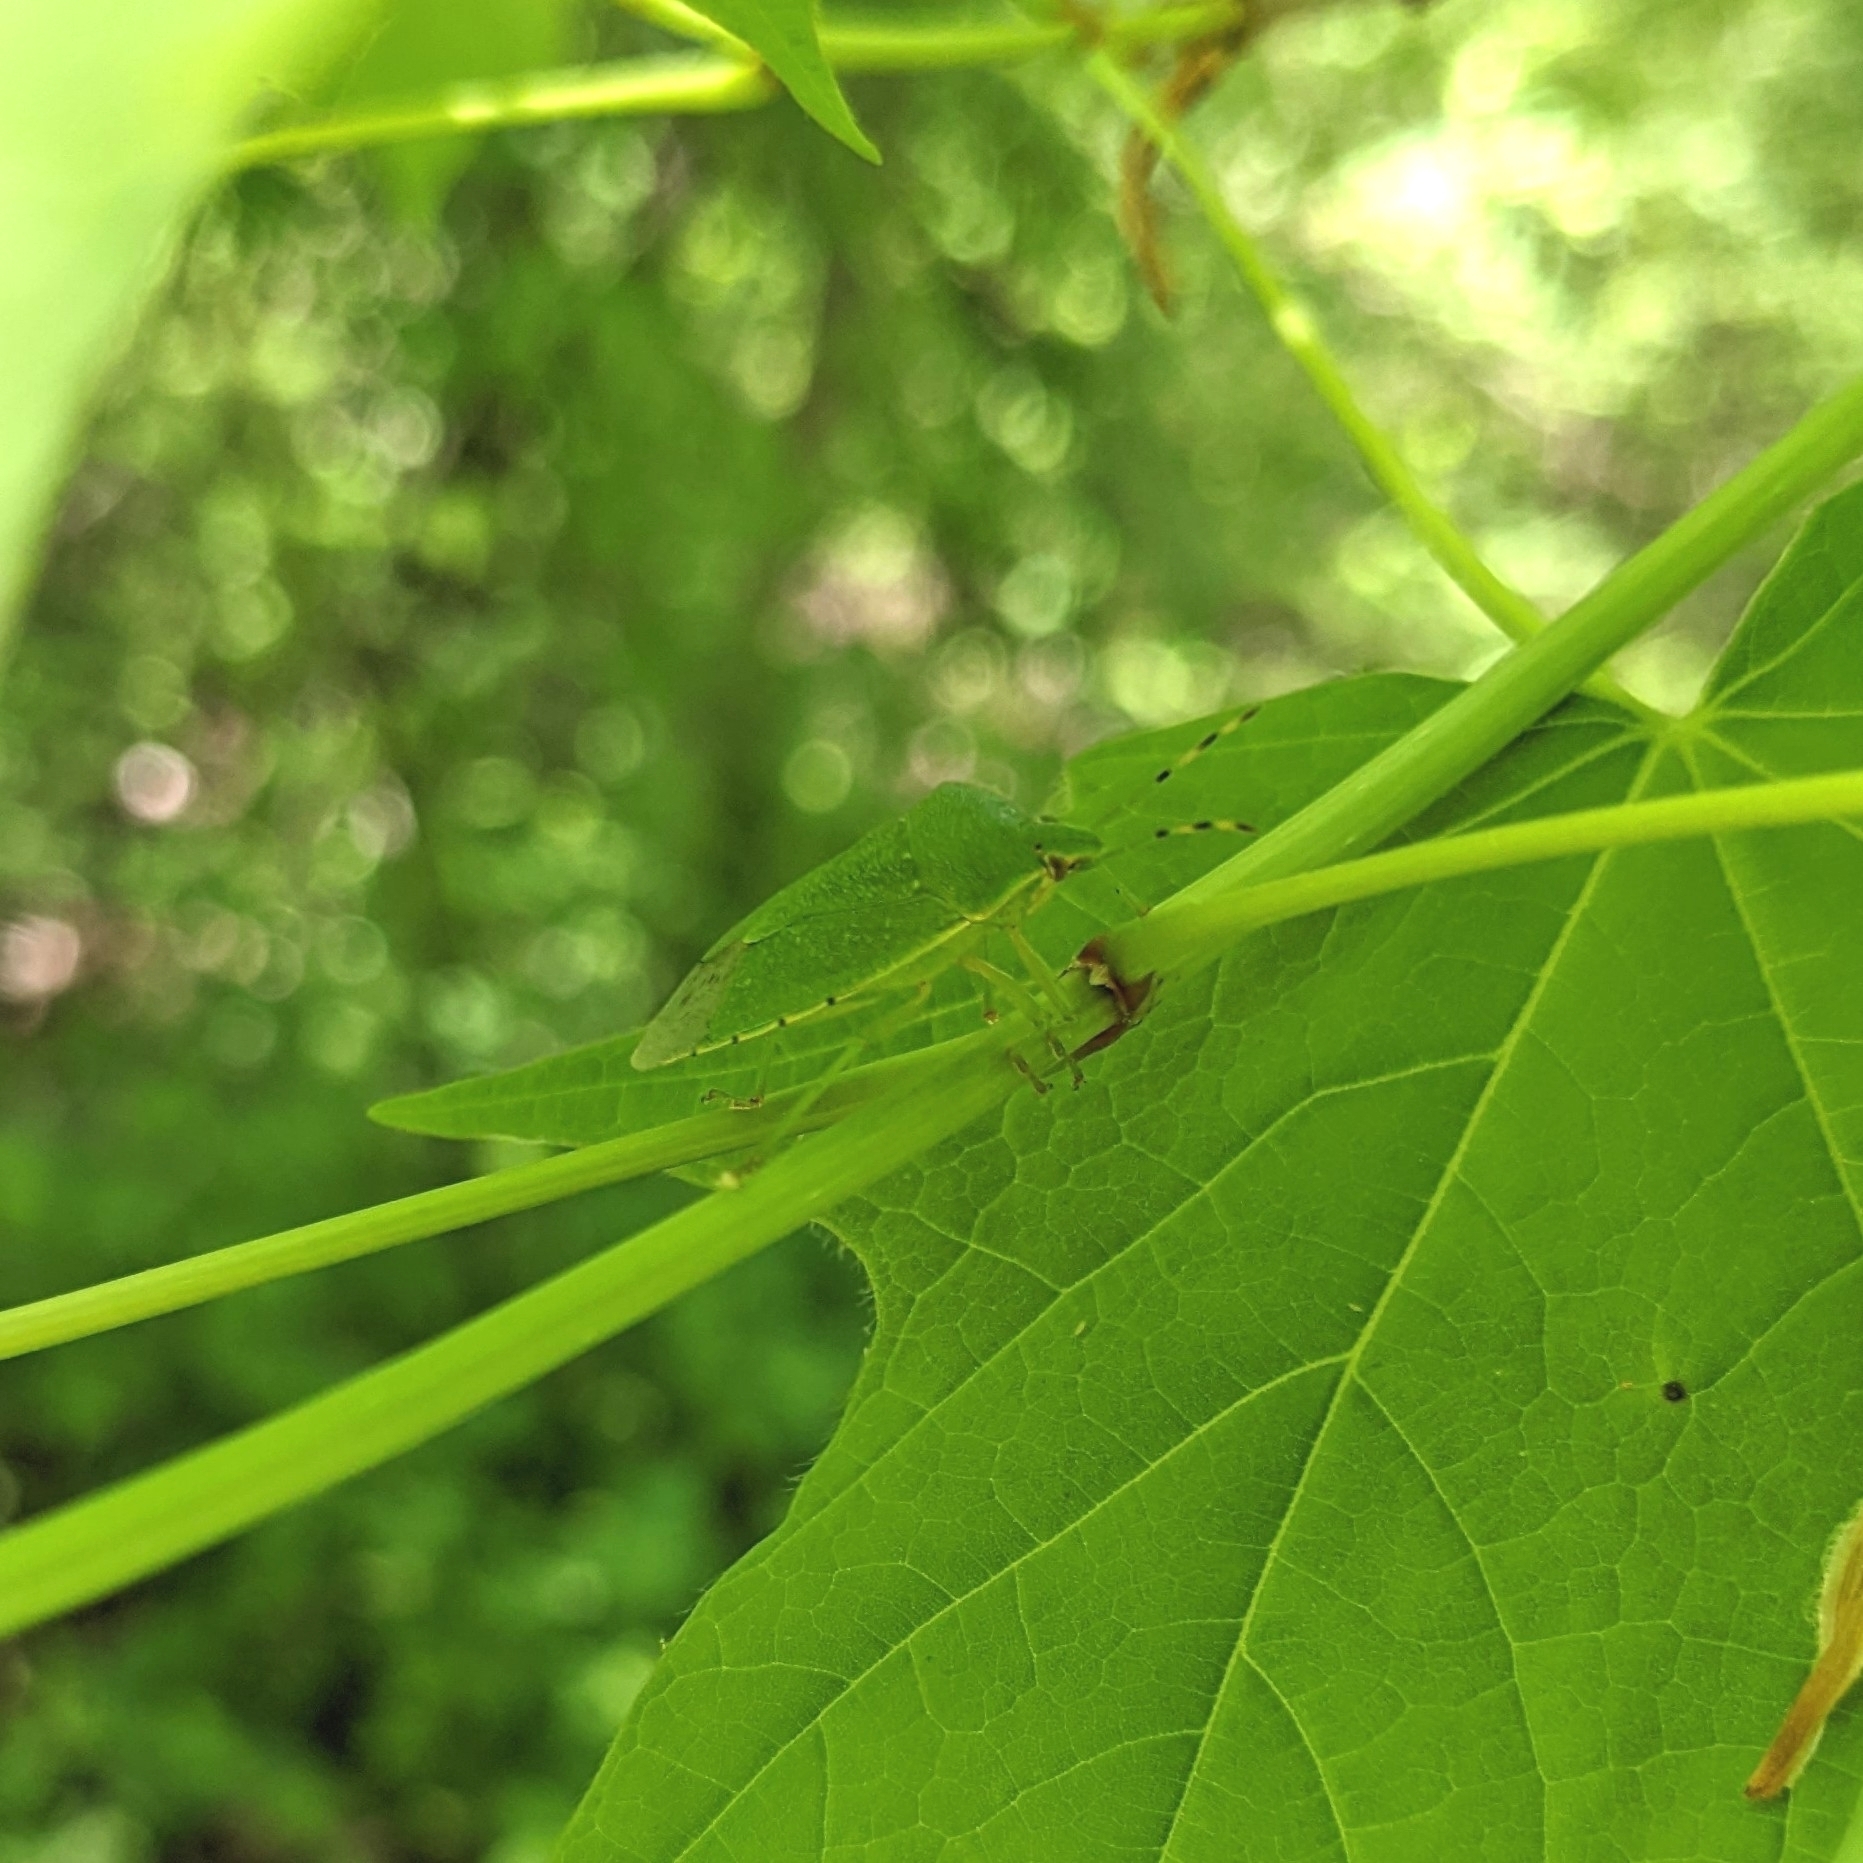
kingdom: Animalia
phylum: Arthropoda
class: Insecta
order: Hemiptera
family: Pentatomidae
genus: Chinavia
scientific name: Chinavia hilaris
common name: Green stink bug
